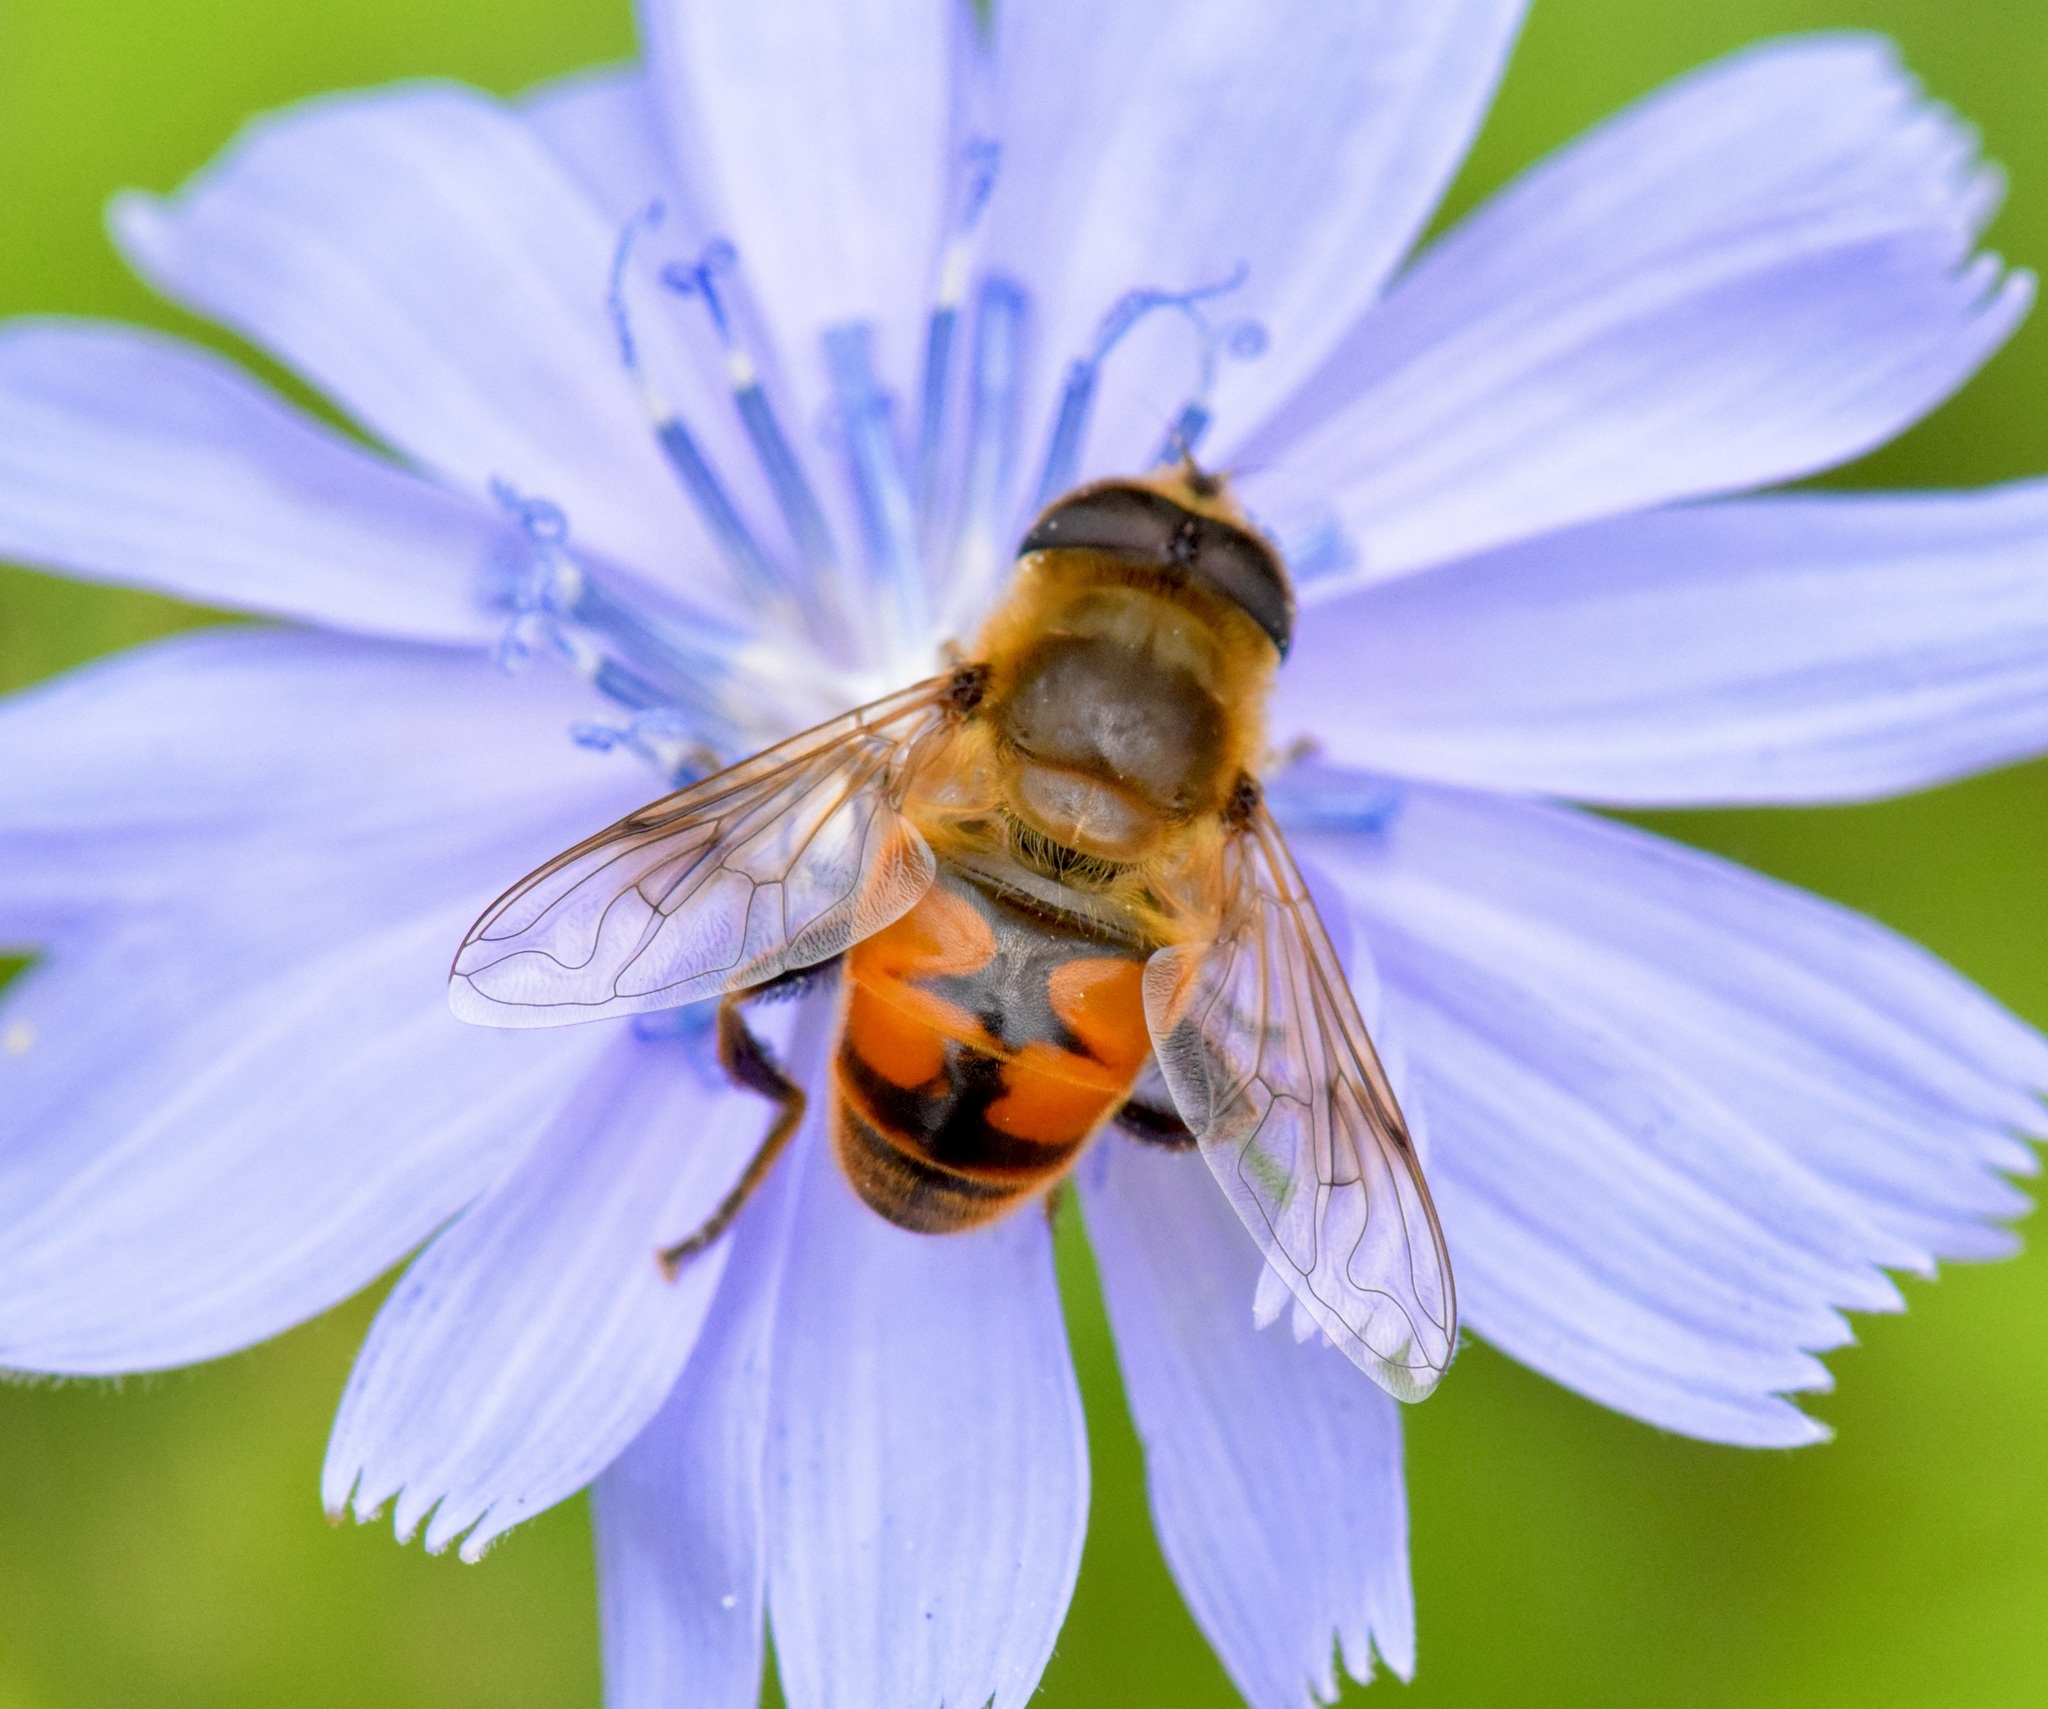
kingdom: Animalia
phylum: Arthropoda
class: Insecta
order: Diptera
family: Syrphidae
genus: Eristalis
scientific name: Eristalis tenax
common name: Drone fly
